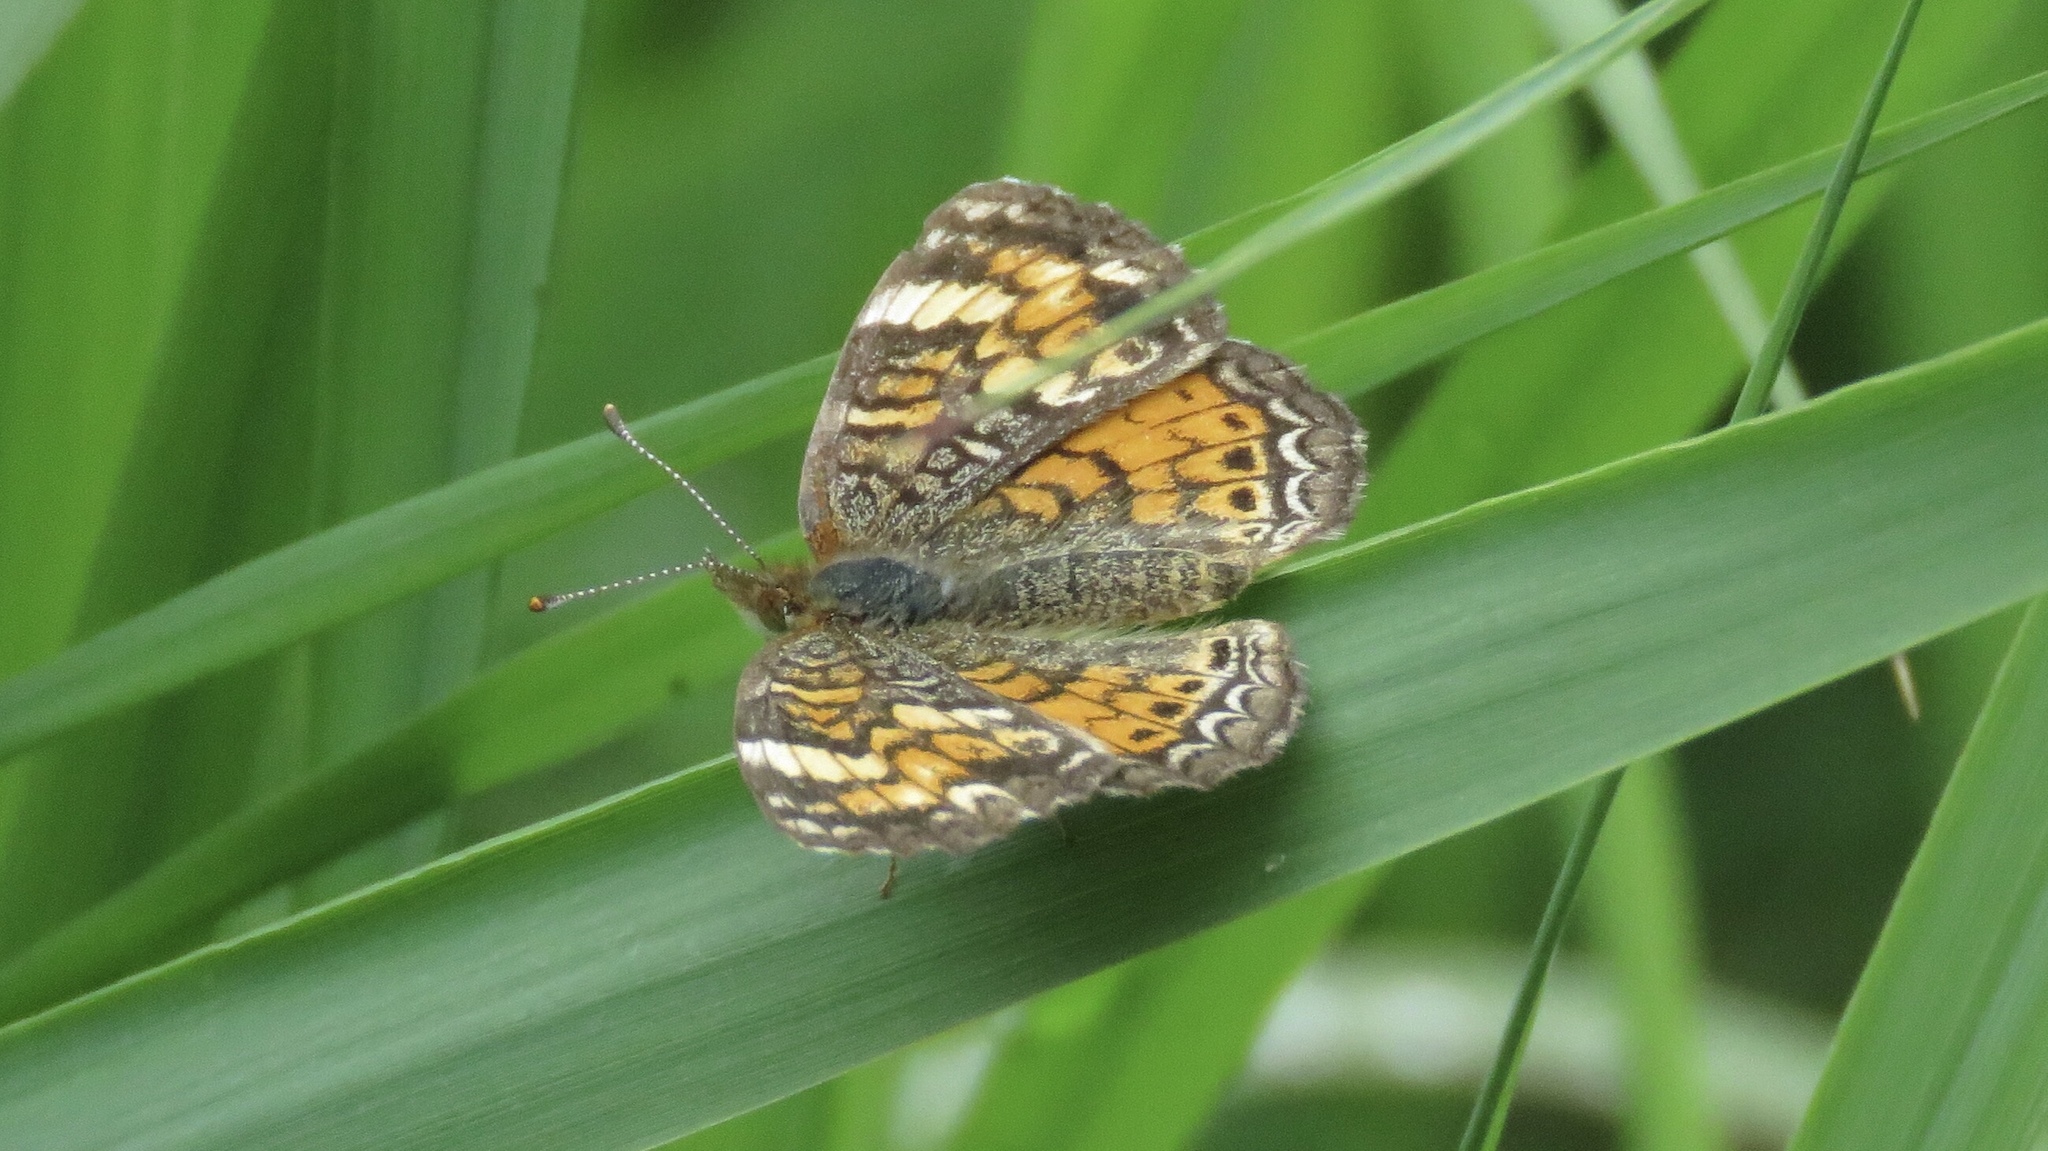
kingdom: Animalia
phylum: Arthropoda
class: Insecta
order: Lepidoptera
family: Nymphalidae
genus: Phyciodes
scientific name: Phyciodes tharos
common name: Pearl crescent
